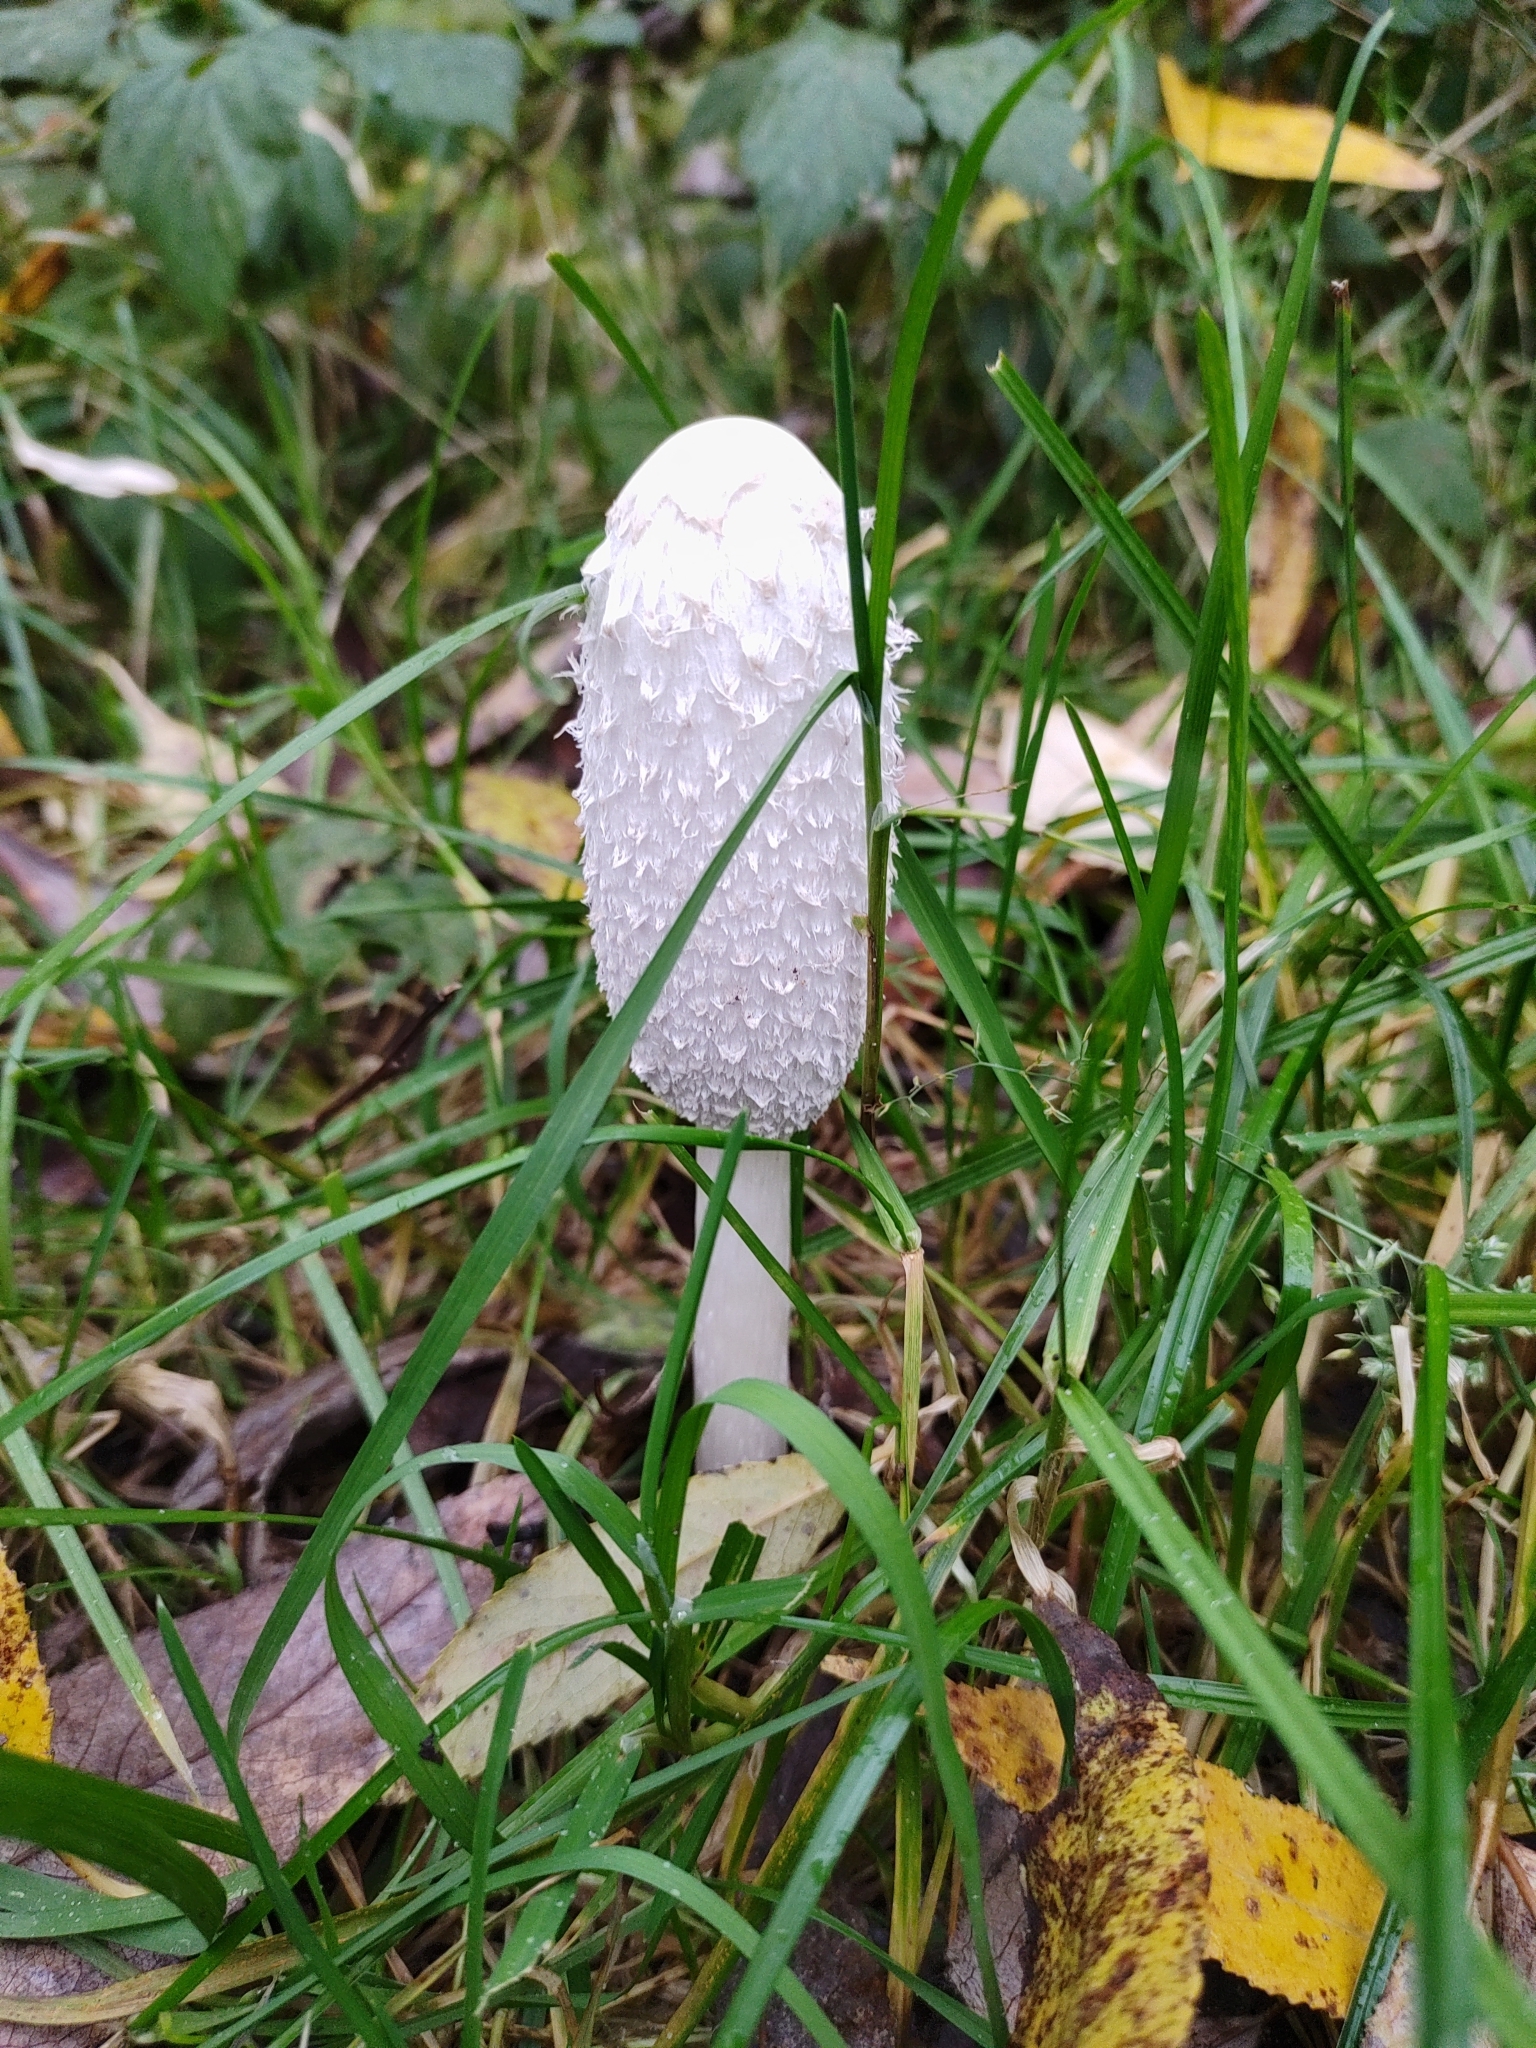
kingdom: Fungi
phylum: Basidiomycota
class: Agaricomycetes
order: Agaricales
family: Agaricaceae
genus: Coprinus
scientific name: Coprinus comatus
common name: Lawyer's wig
